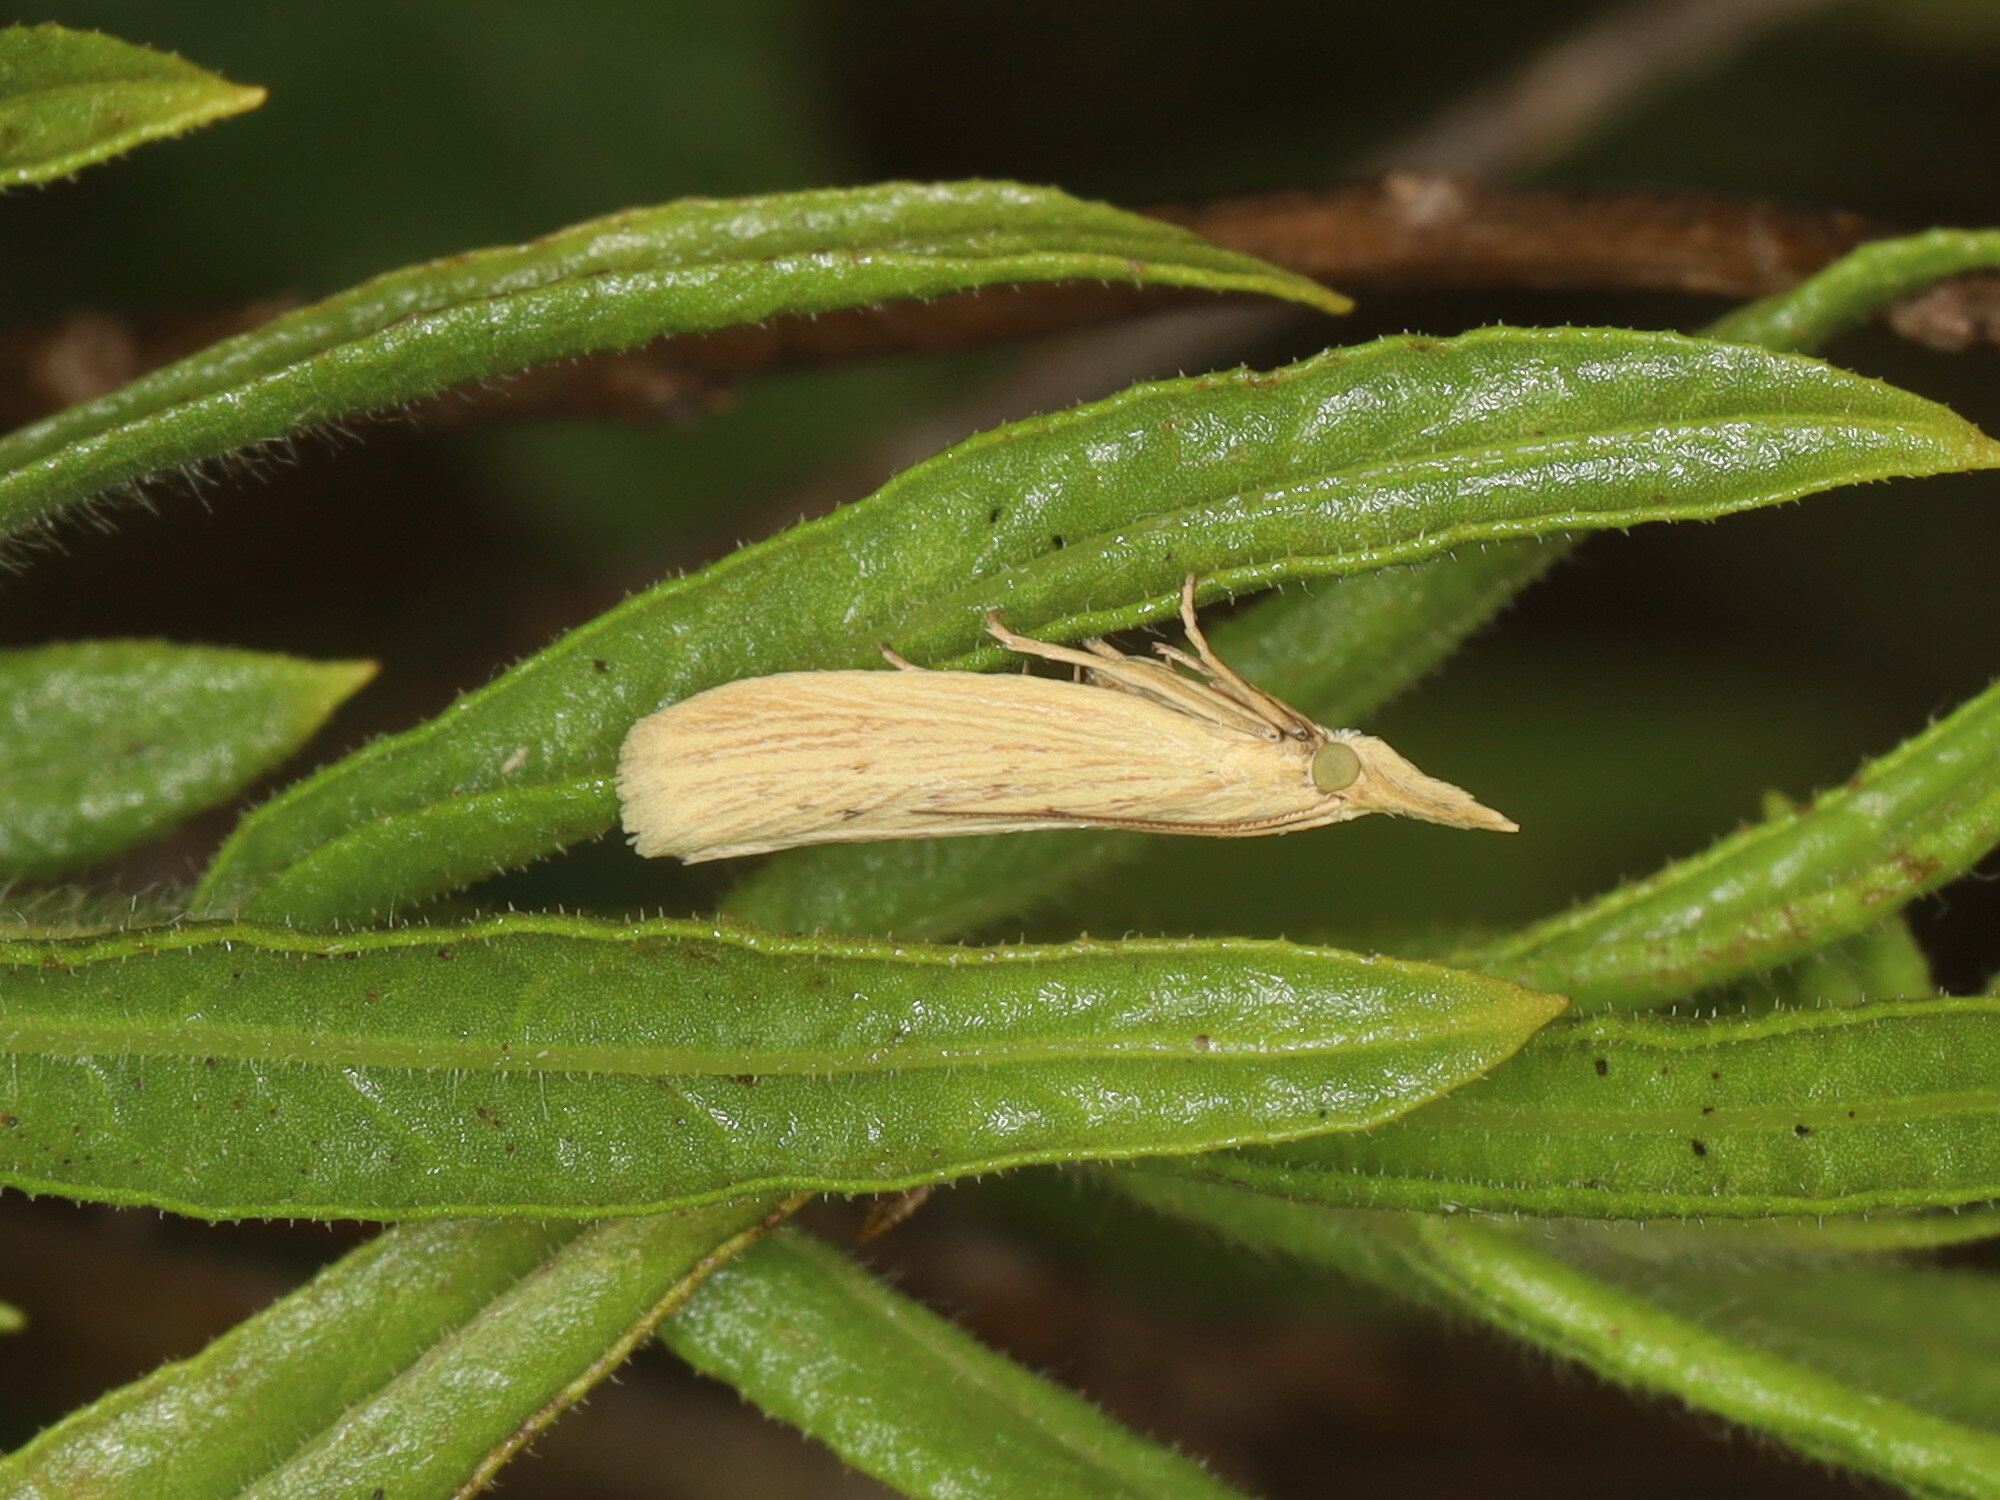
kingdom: Animalia
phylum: Arthropoda
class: Insecta
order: Lepidoptera
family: Pyralidae
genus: Ematheudes
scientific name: Ematheudes punctellus
